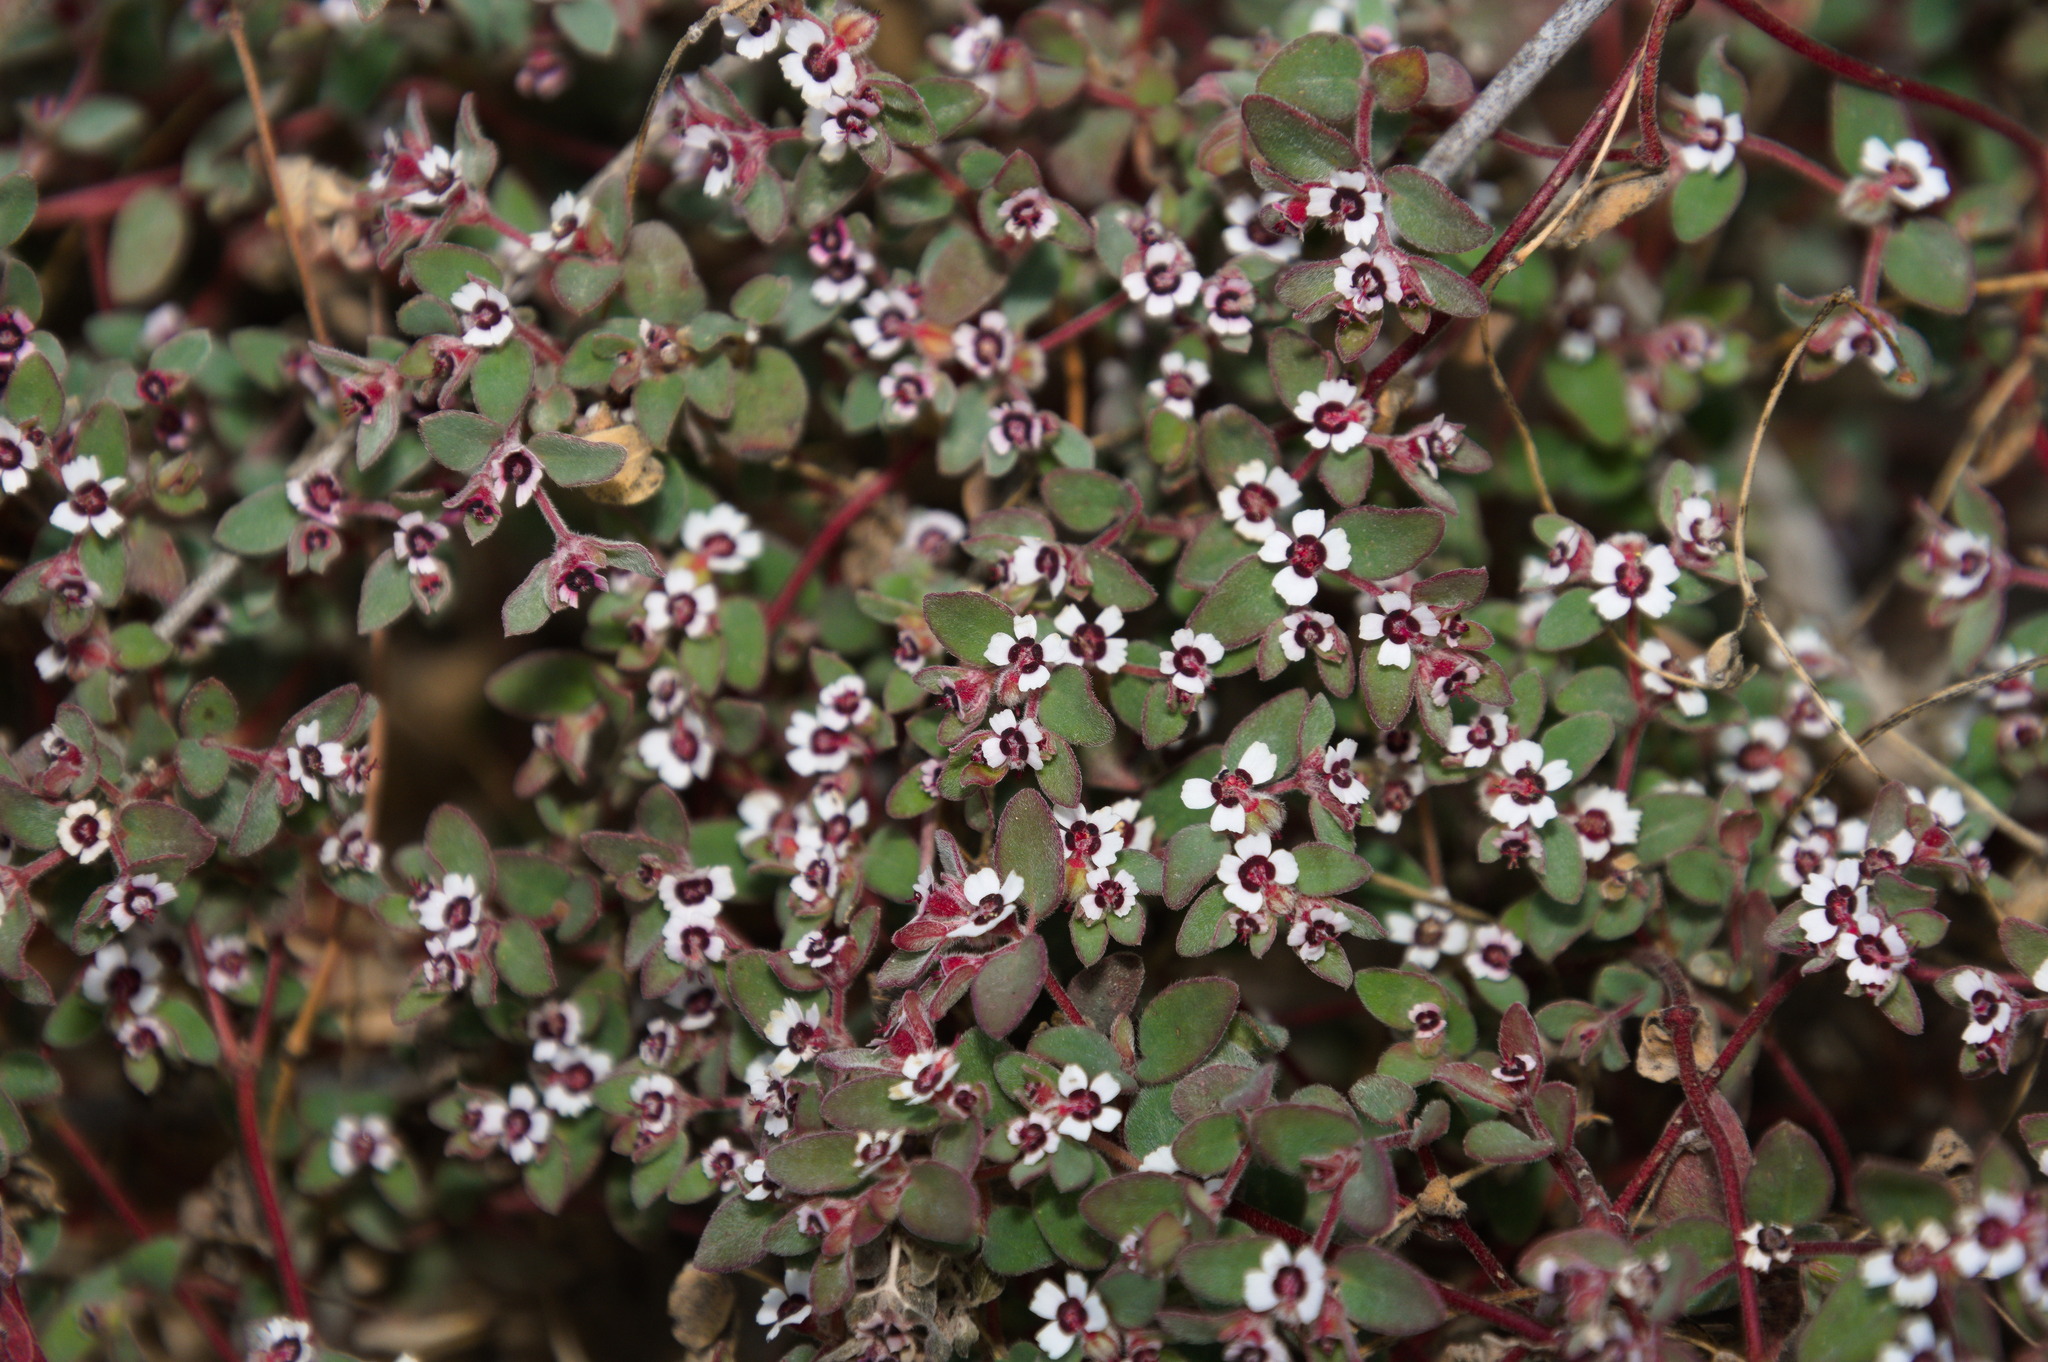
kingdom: Plantae
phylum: Tracheophyta
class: Magnoliopsida
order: Malpighiales
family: Euphorbiaceae
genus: Euphorbia
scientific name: Euphorbia melanadenia
